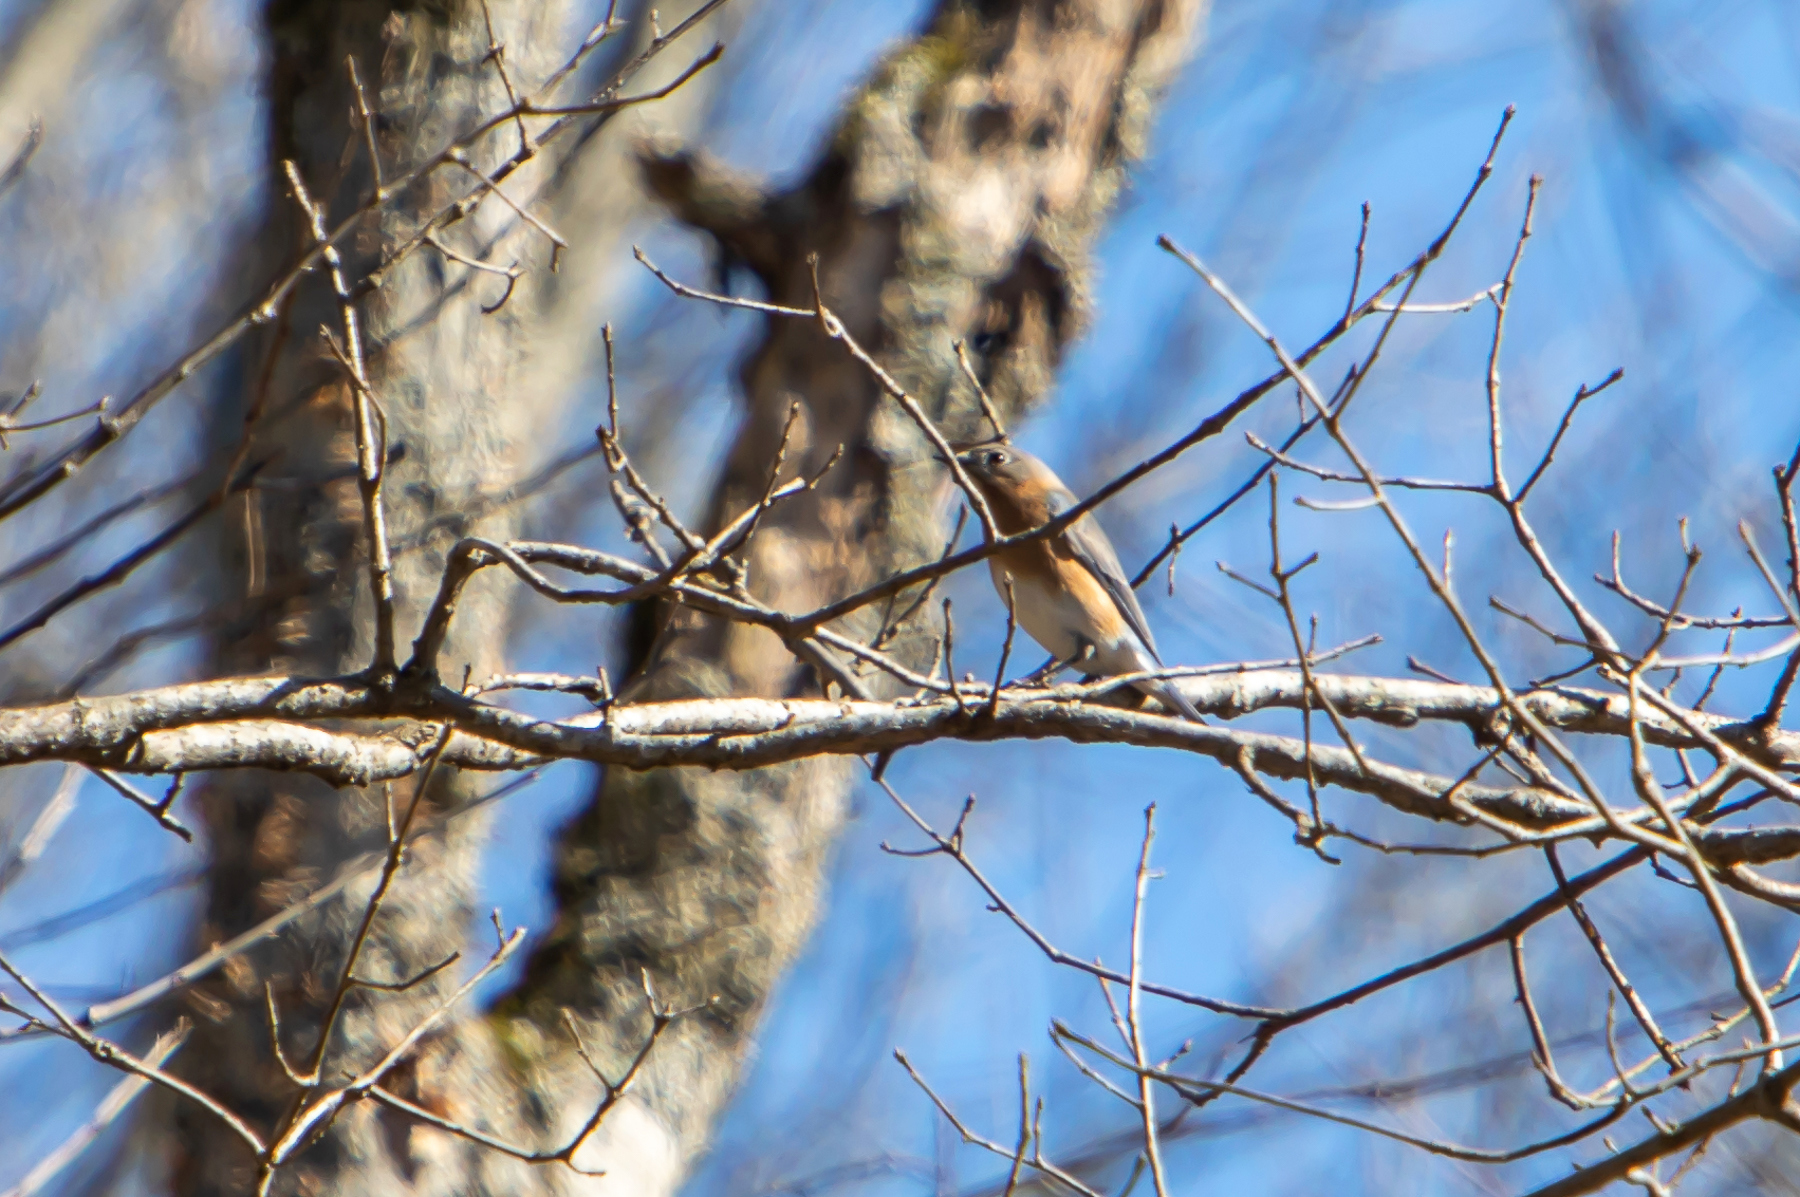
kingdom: Animalia
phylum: Chordata
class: Aves
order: Passeriformes
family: Turdidae
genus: Sialia
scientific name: Sialia sialis
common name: Eastern bluebird
